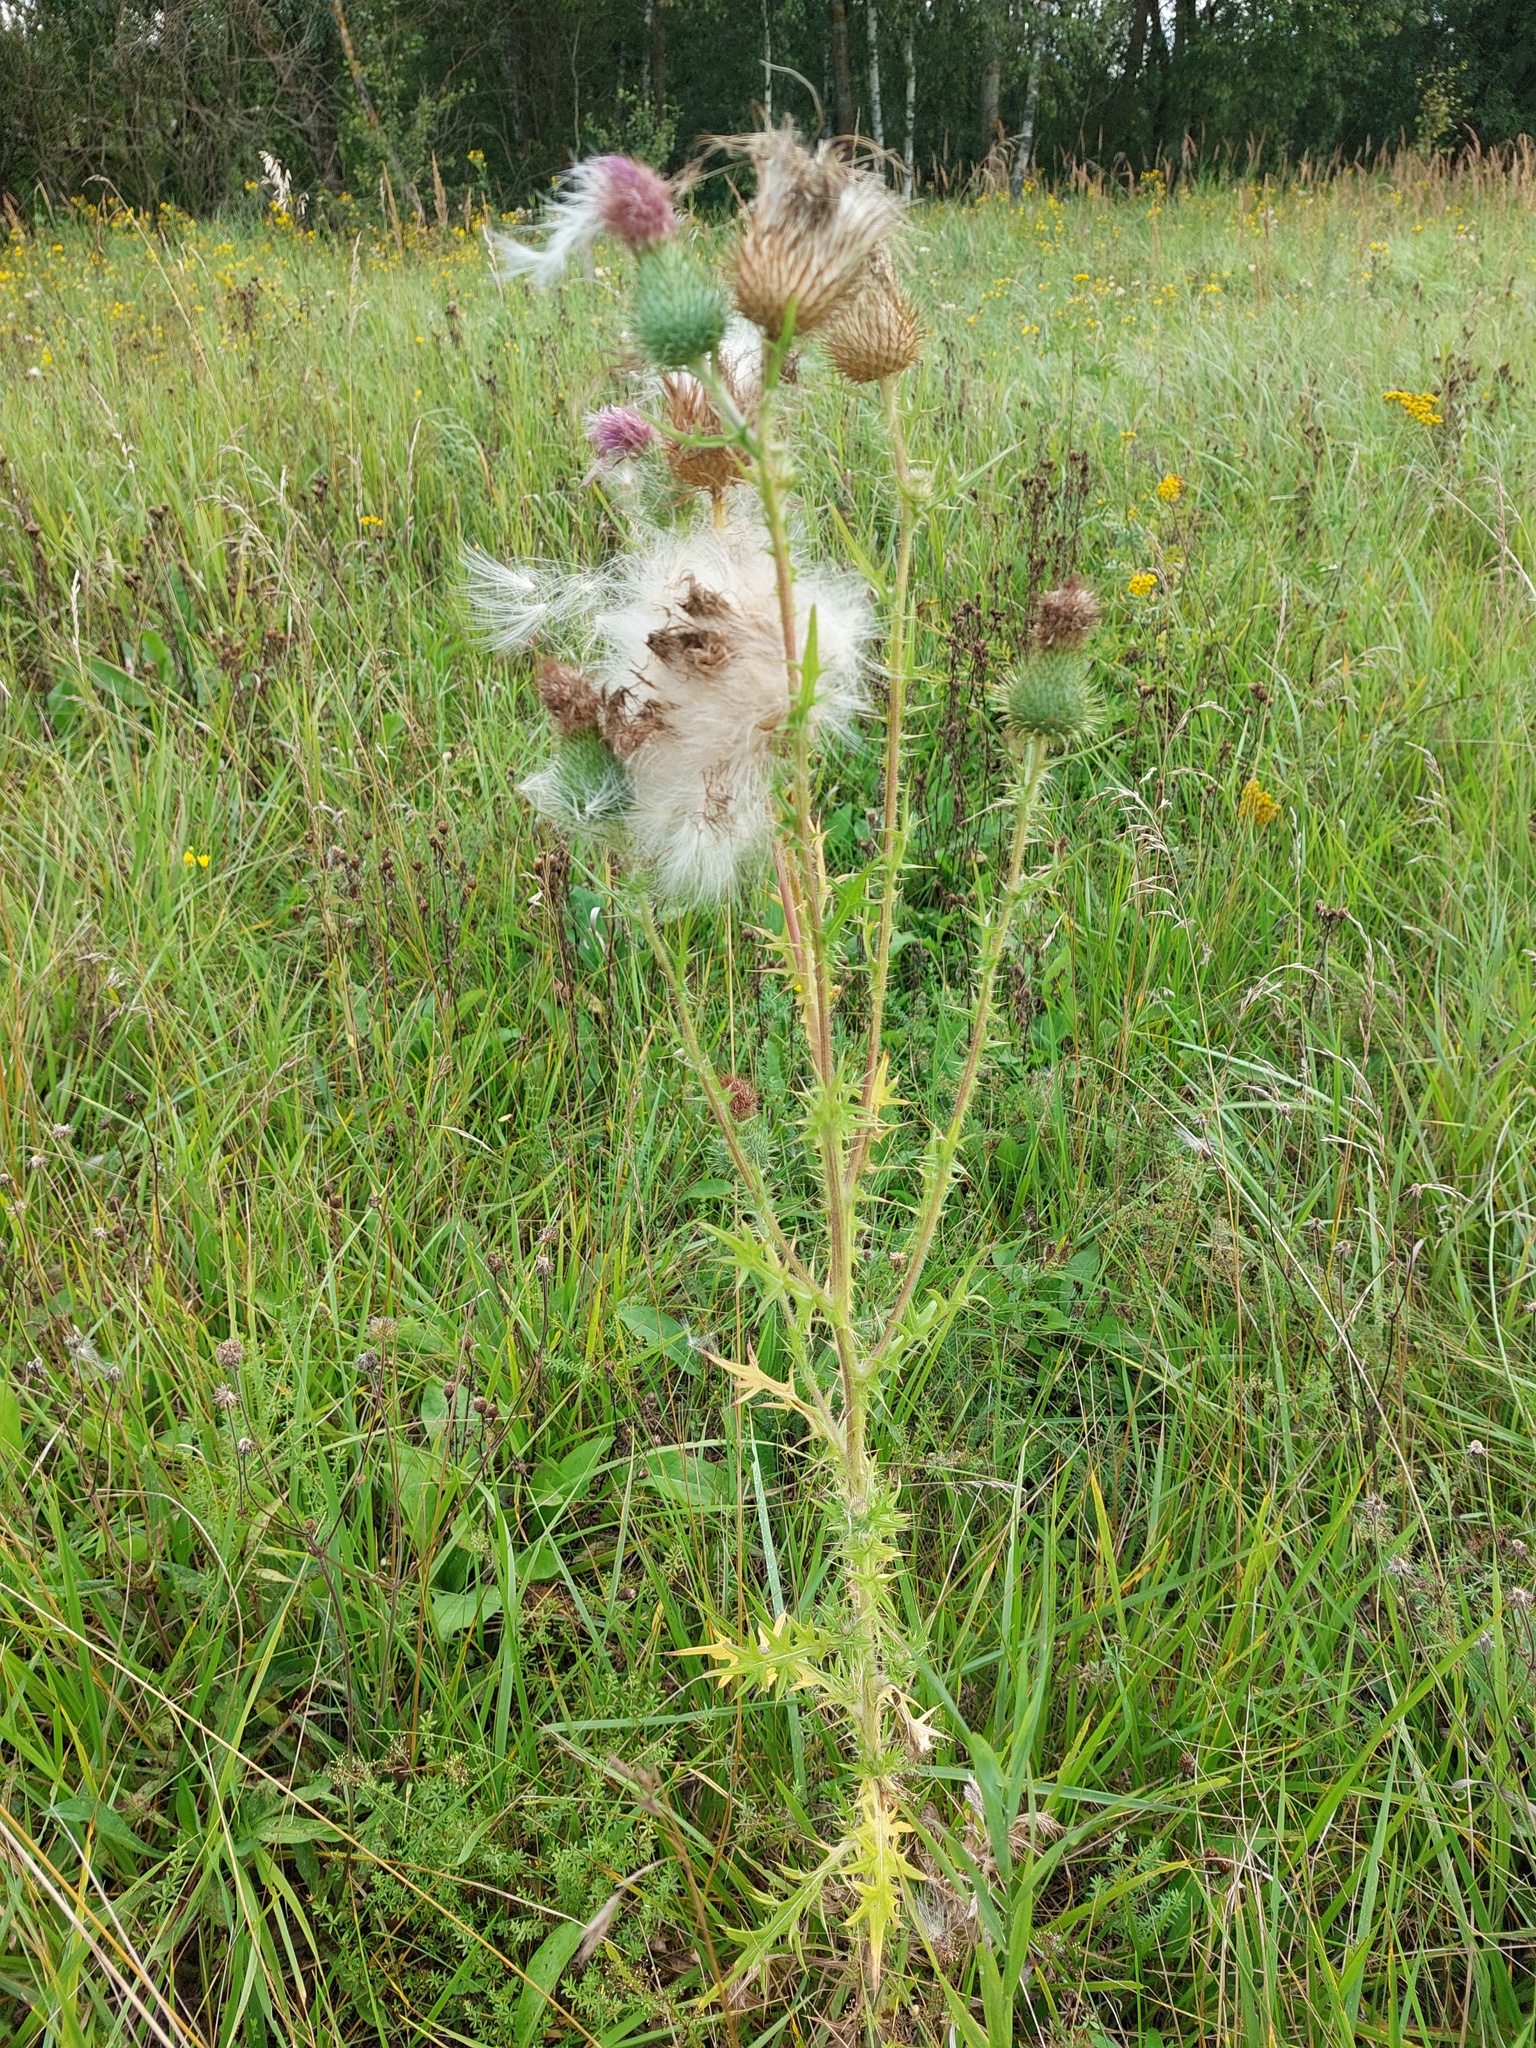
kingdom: Plantae
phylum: Tracheophyta
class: Magnoliopsida
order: Asterales
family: Asteraceae
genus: Cirsium
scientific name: Cirsium vulgare
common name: Bull thistle
